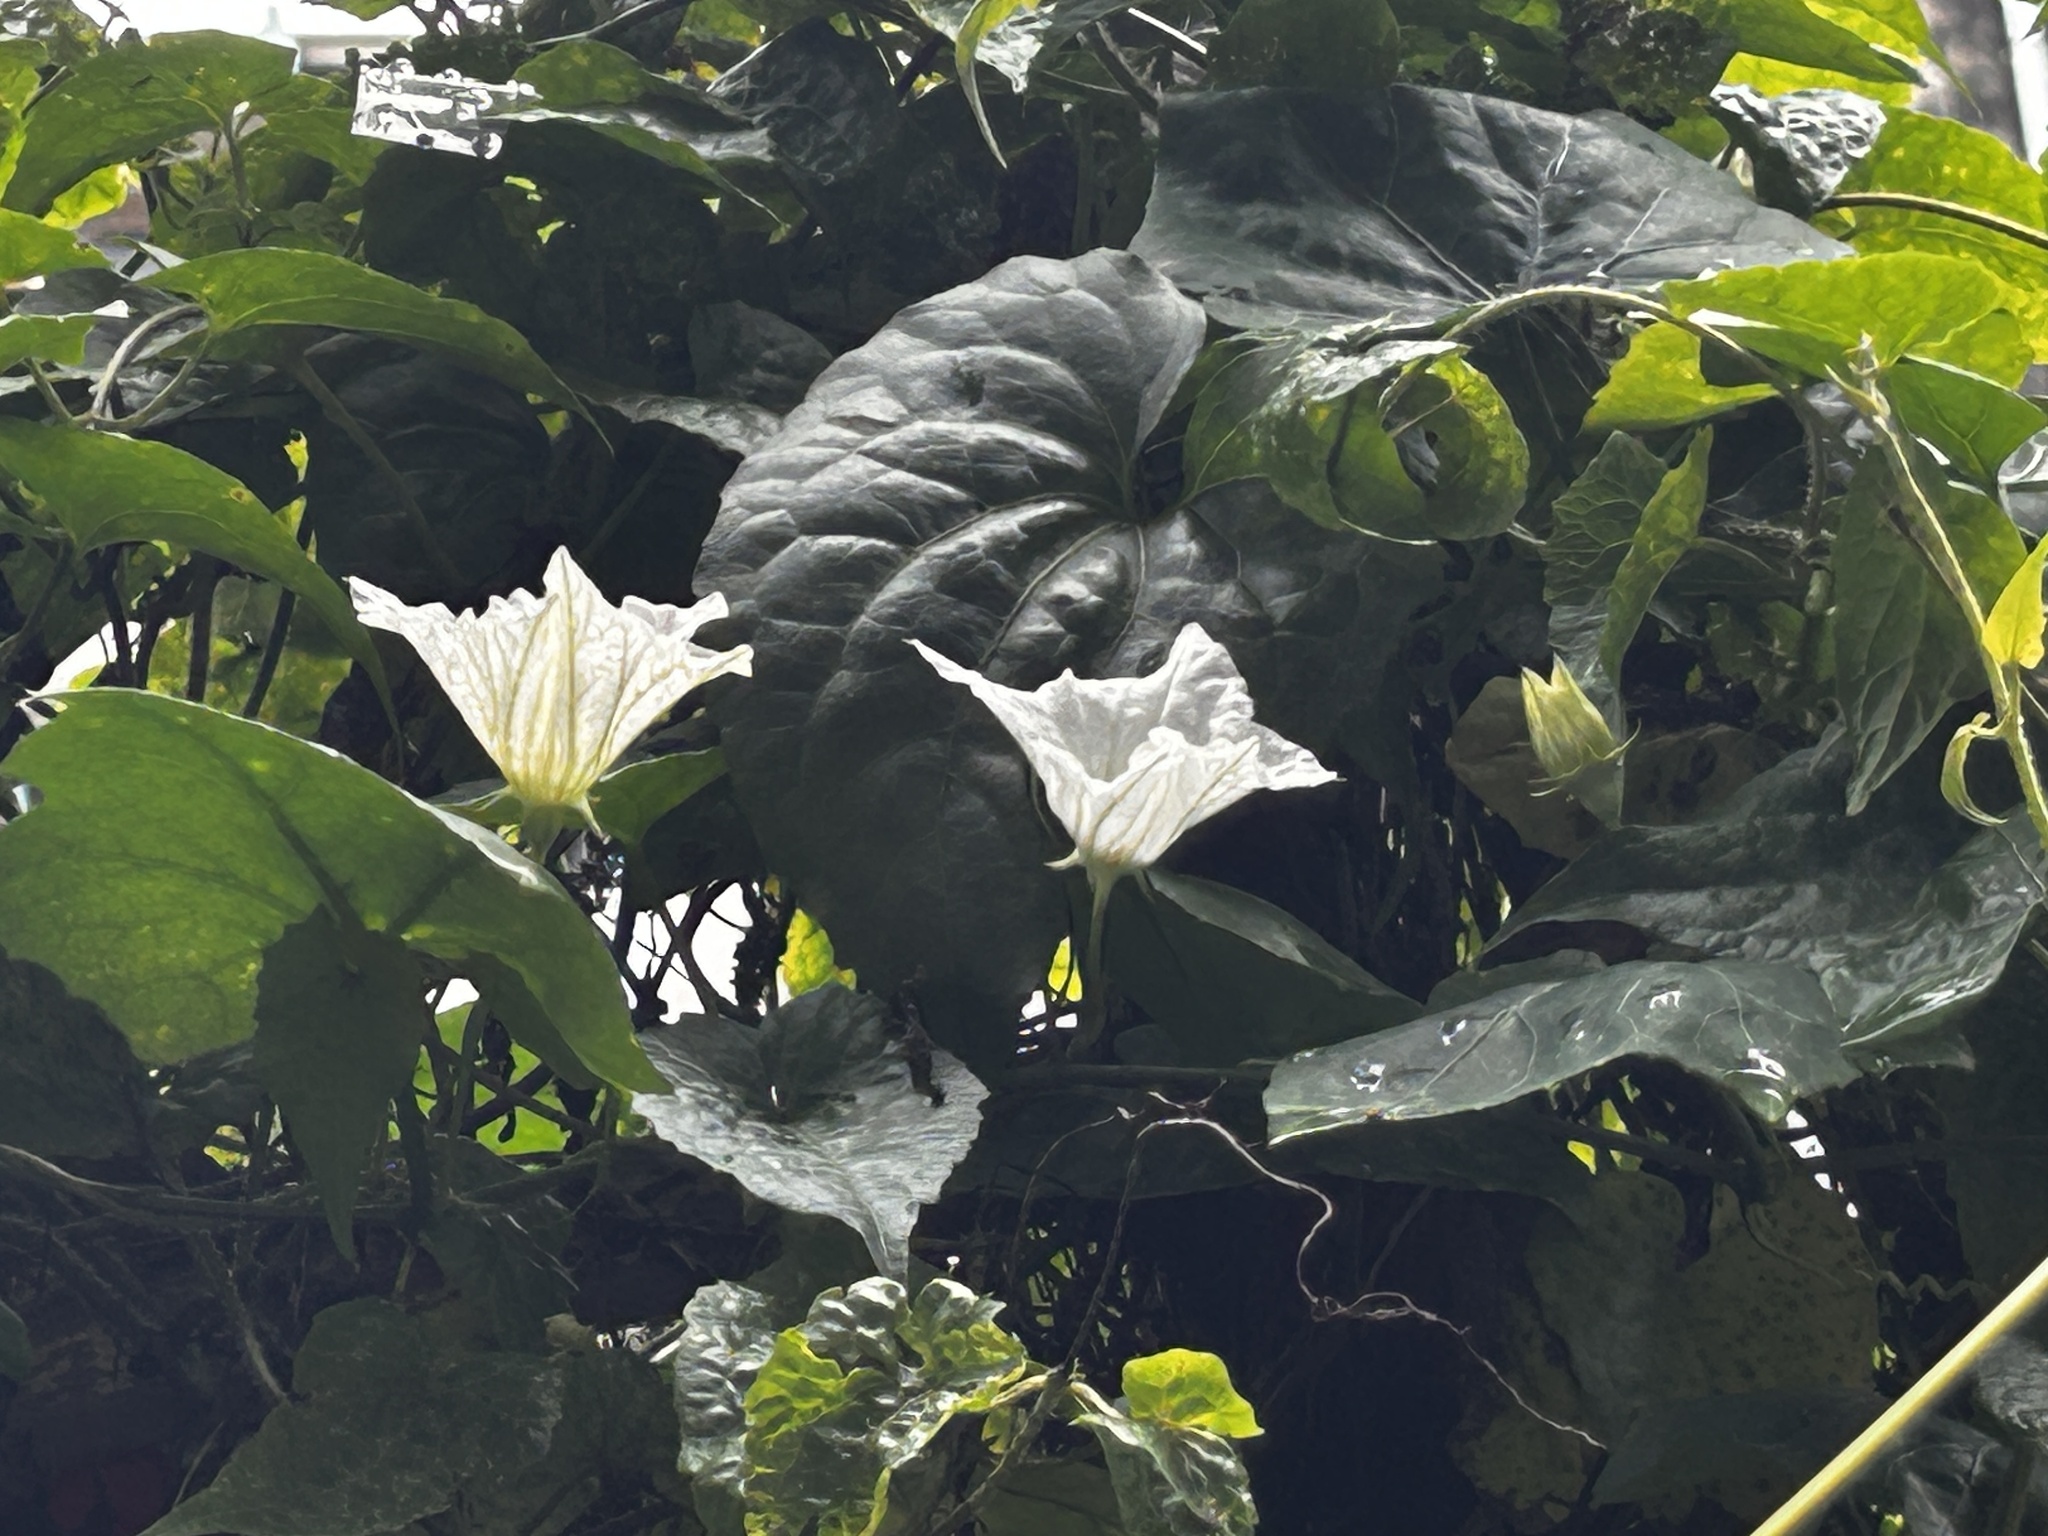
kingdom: Plantae
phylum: Tracheophyta
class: Magnoliopsida
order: Cucurbitales
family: Cucurbitaceae
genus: Coccinia
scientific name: Coccinia grandis
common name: Ivy gourd
